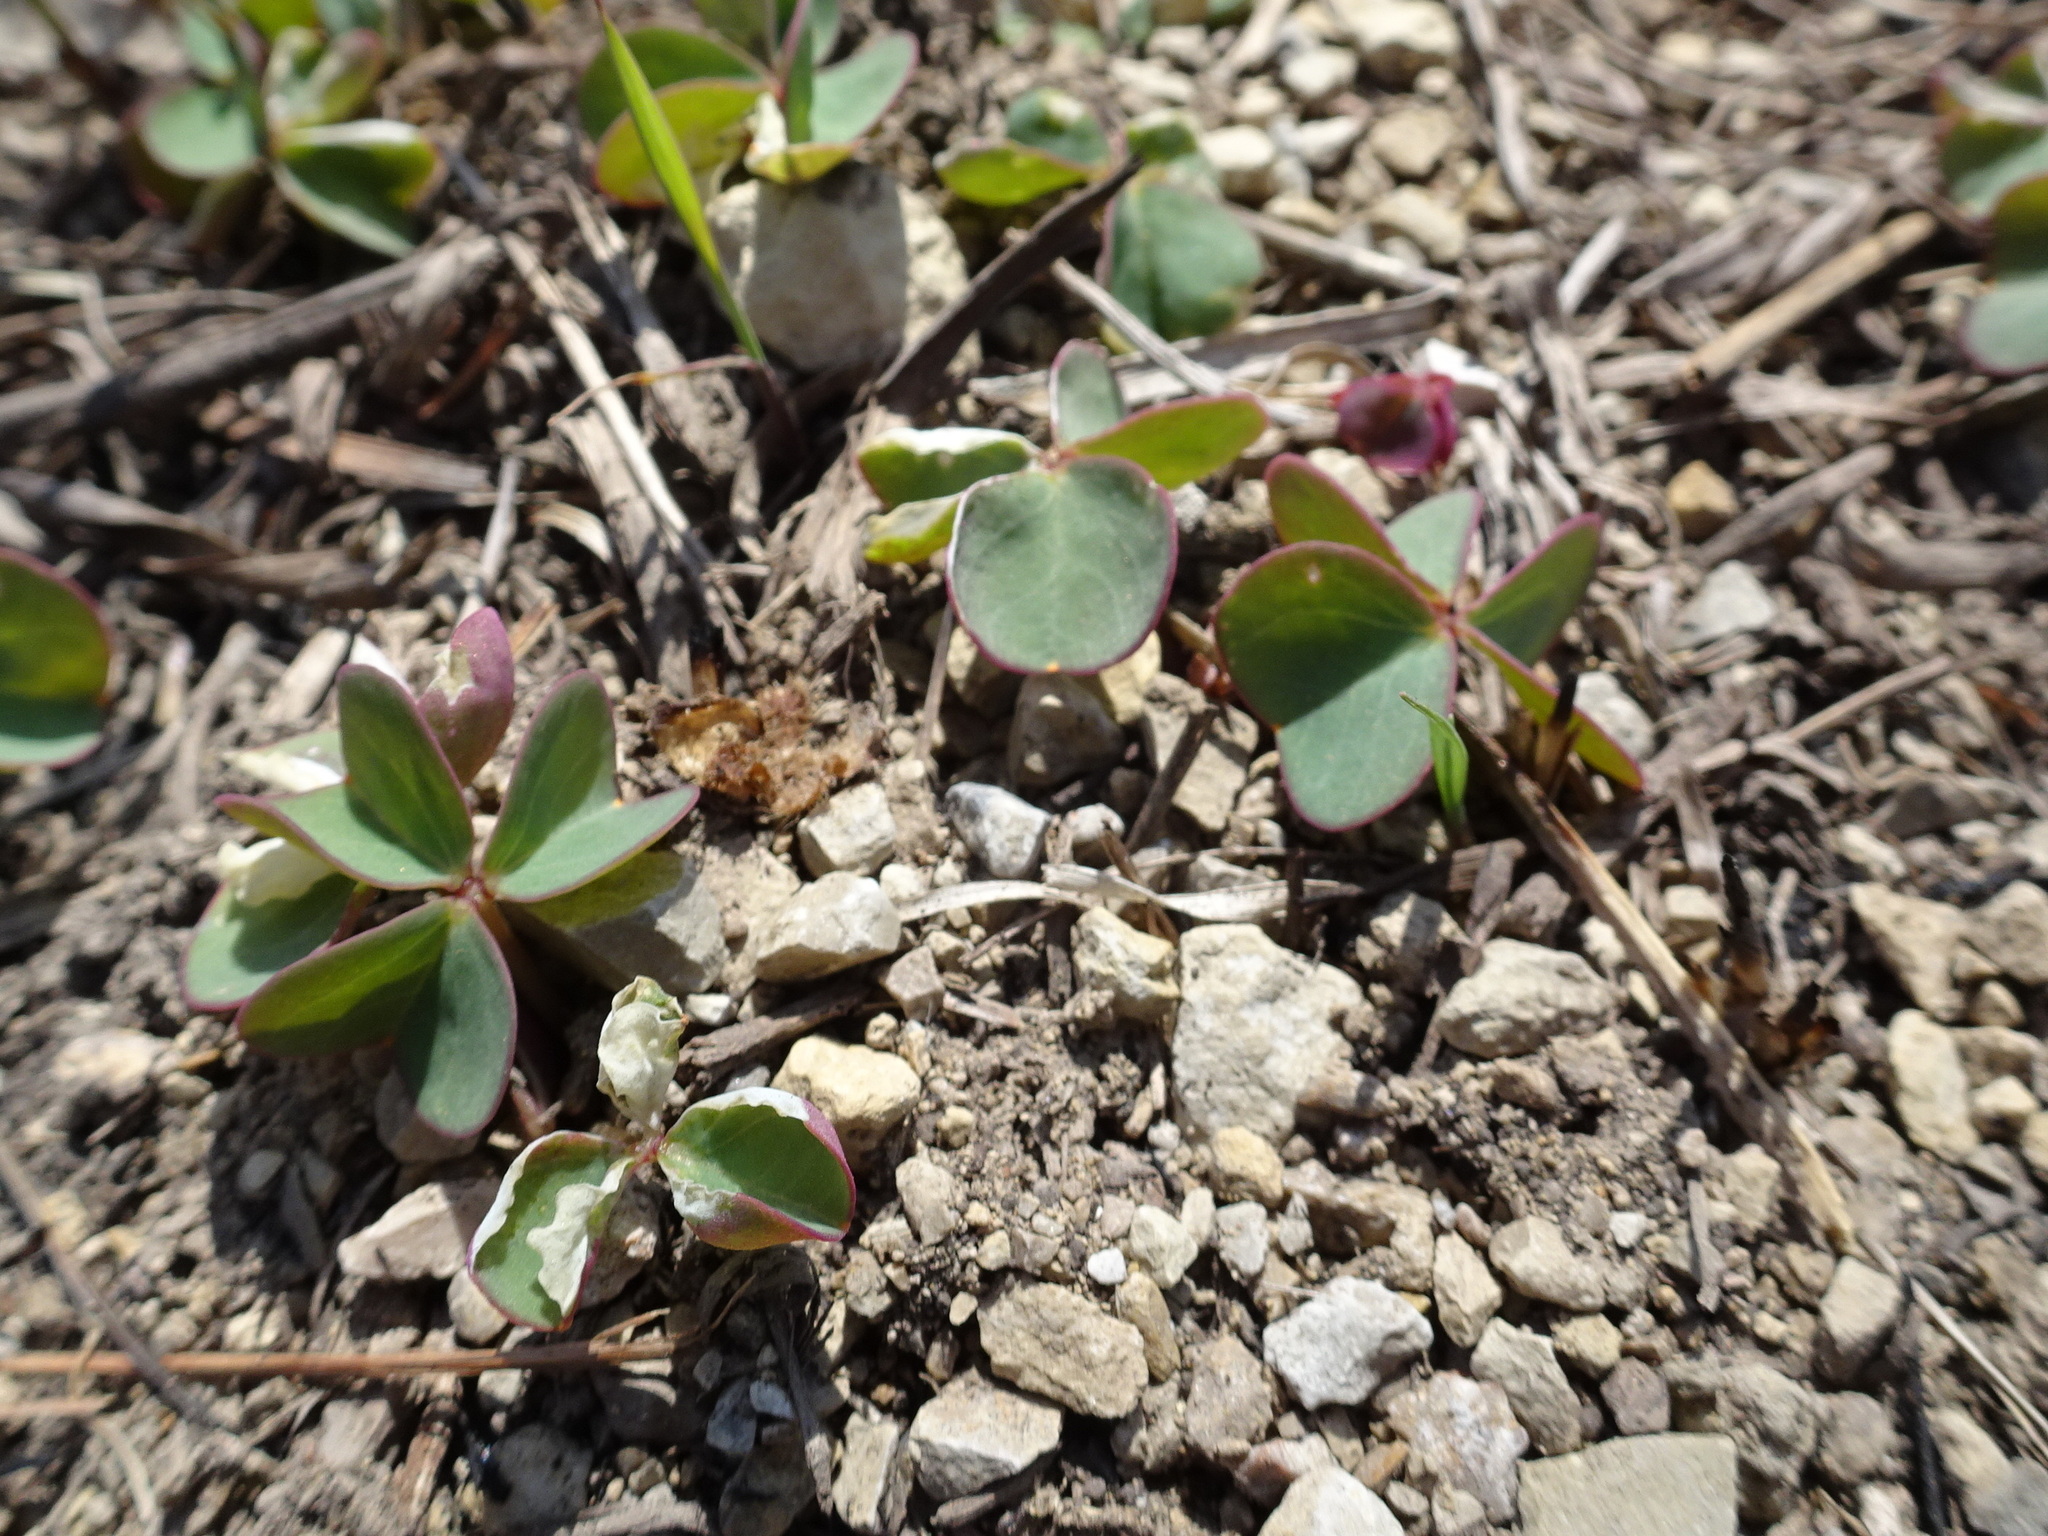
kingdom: Plantae
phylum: Tracheophyta
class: Magnoliopsida
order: Oxalidales
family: Oxalidaceae
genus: Oxalis
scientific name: Oxalis violacea
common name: Violet wood-sorrel
